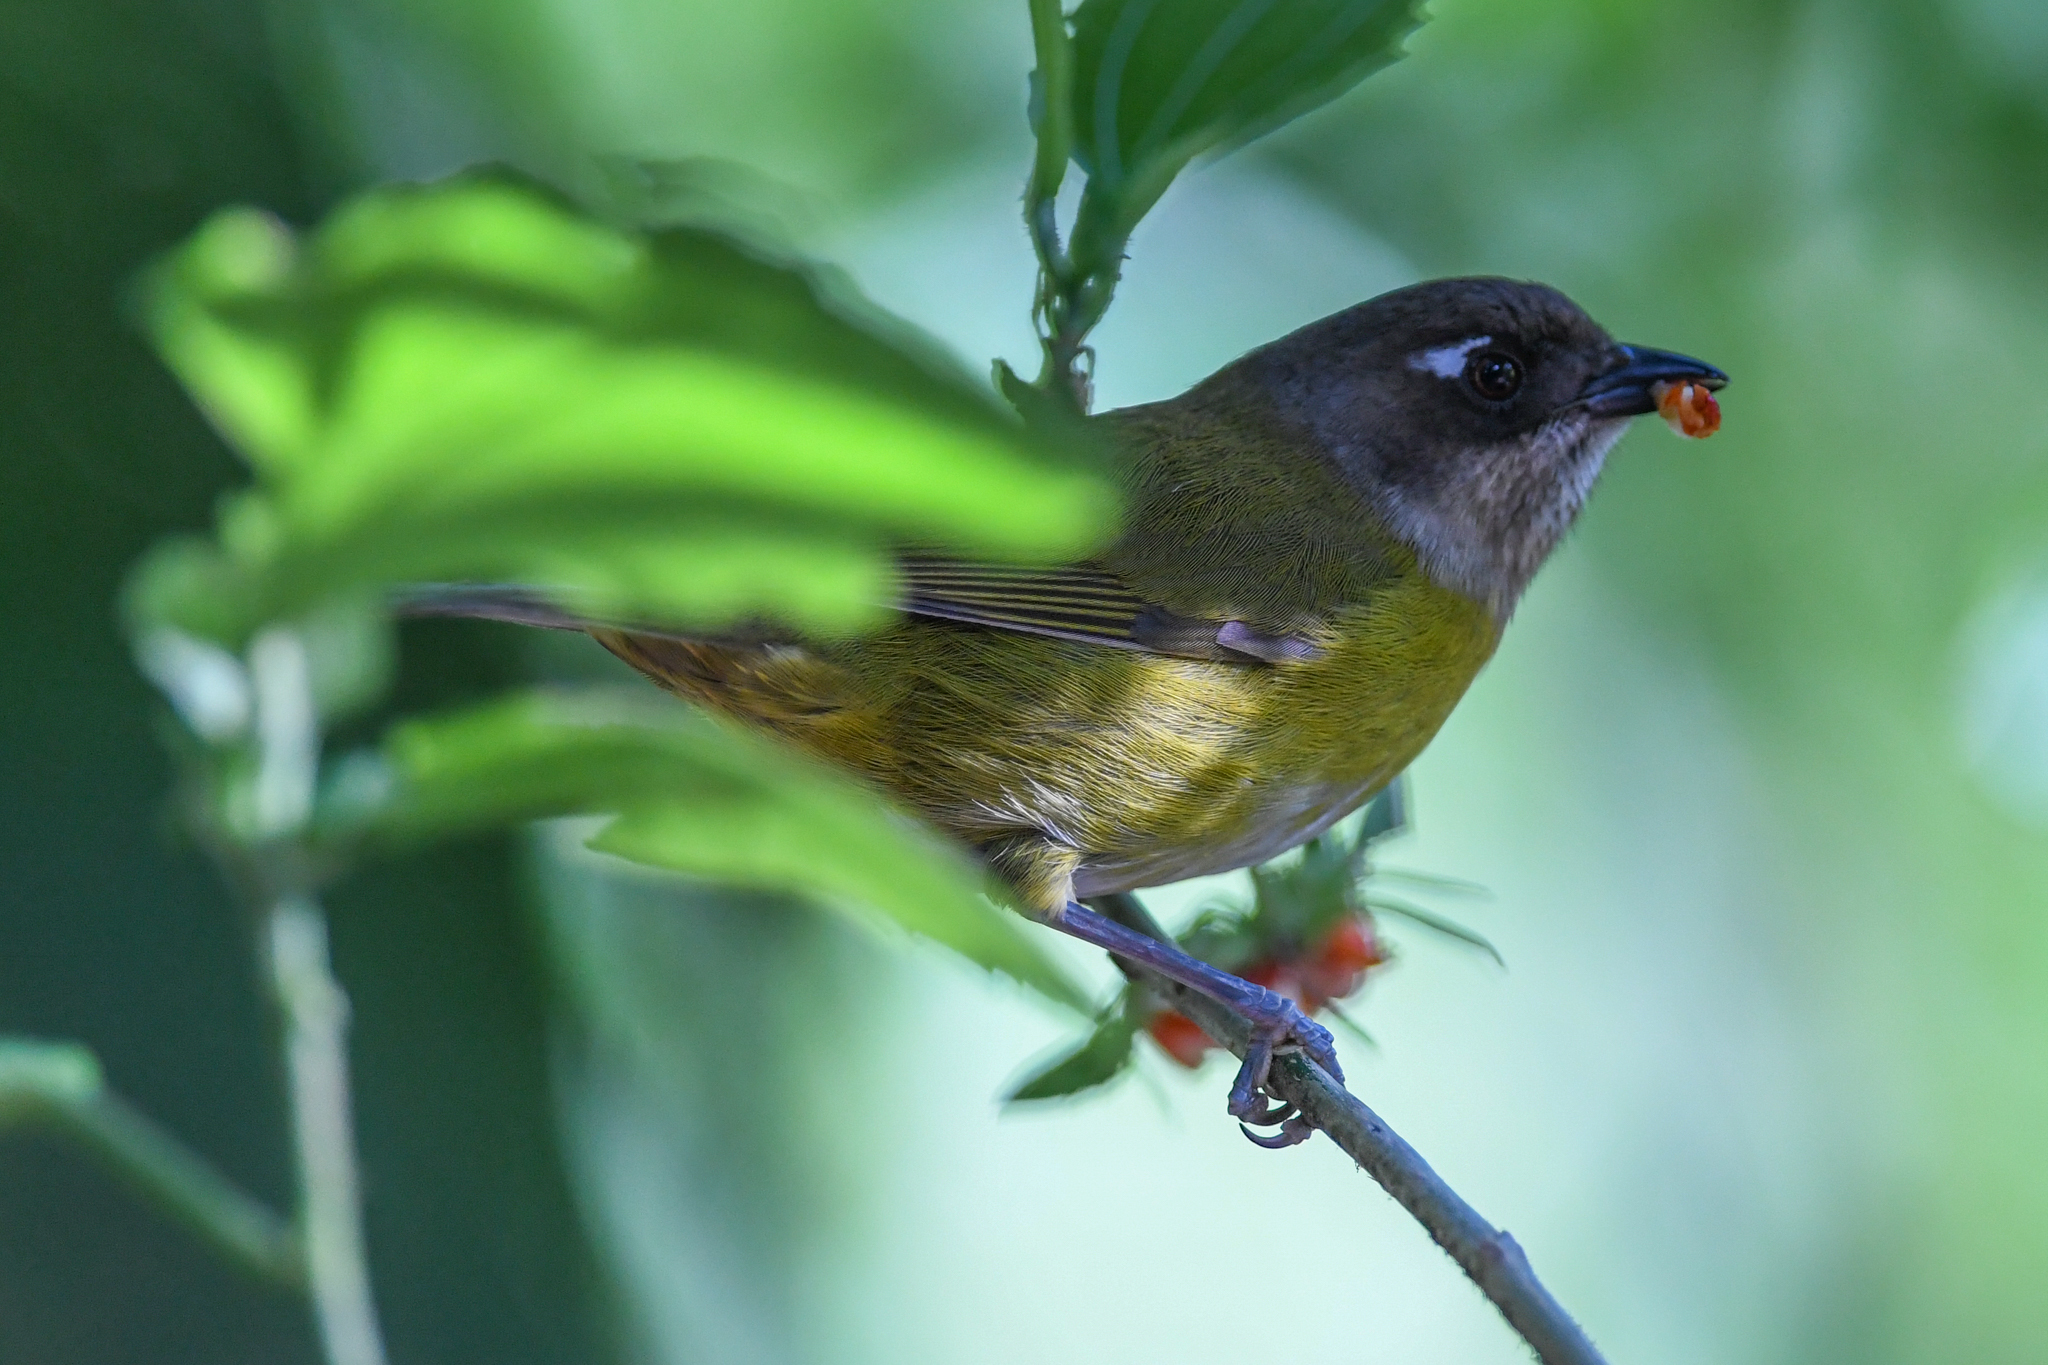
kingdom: Animalia
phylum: Chordata
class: Aves
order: Passeriformes
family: Passerellidae
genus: Chlorospingus
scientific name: Chlorospingus flavopectus
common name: Common chlorospingus
